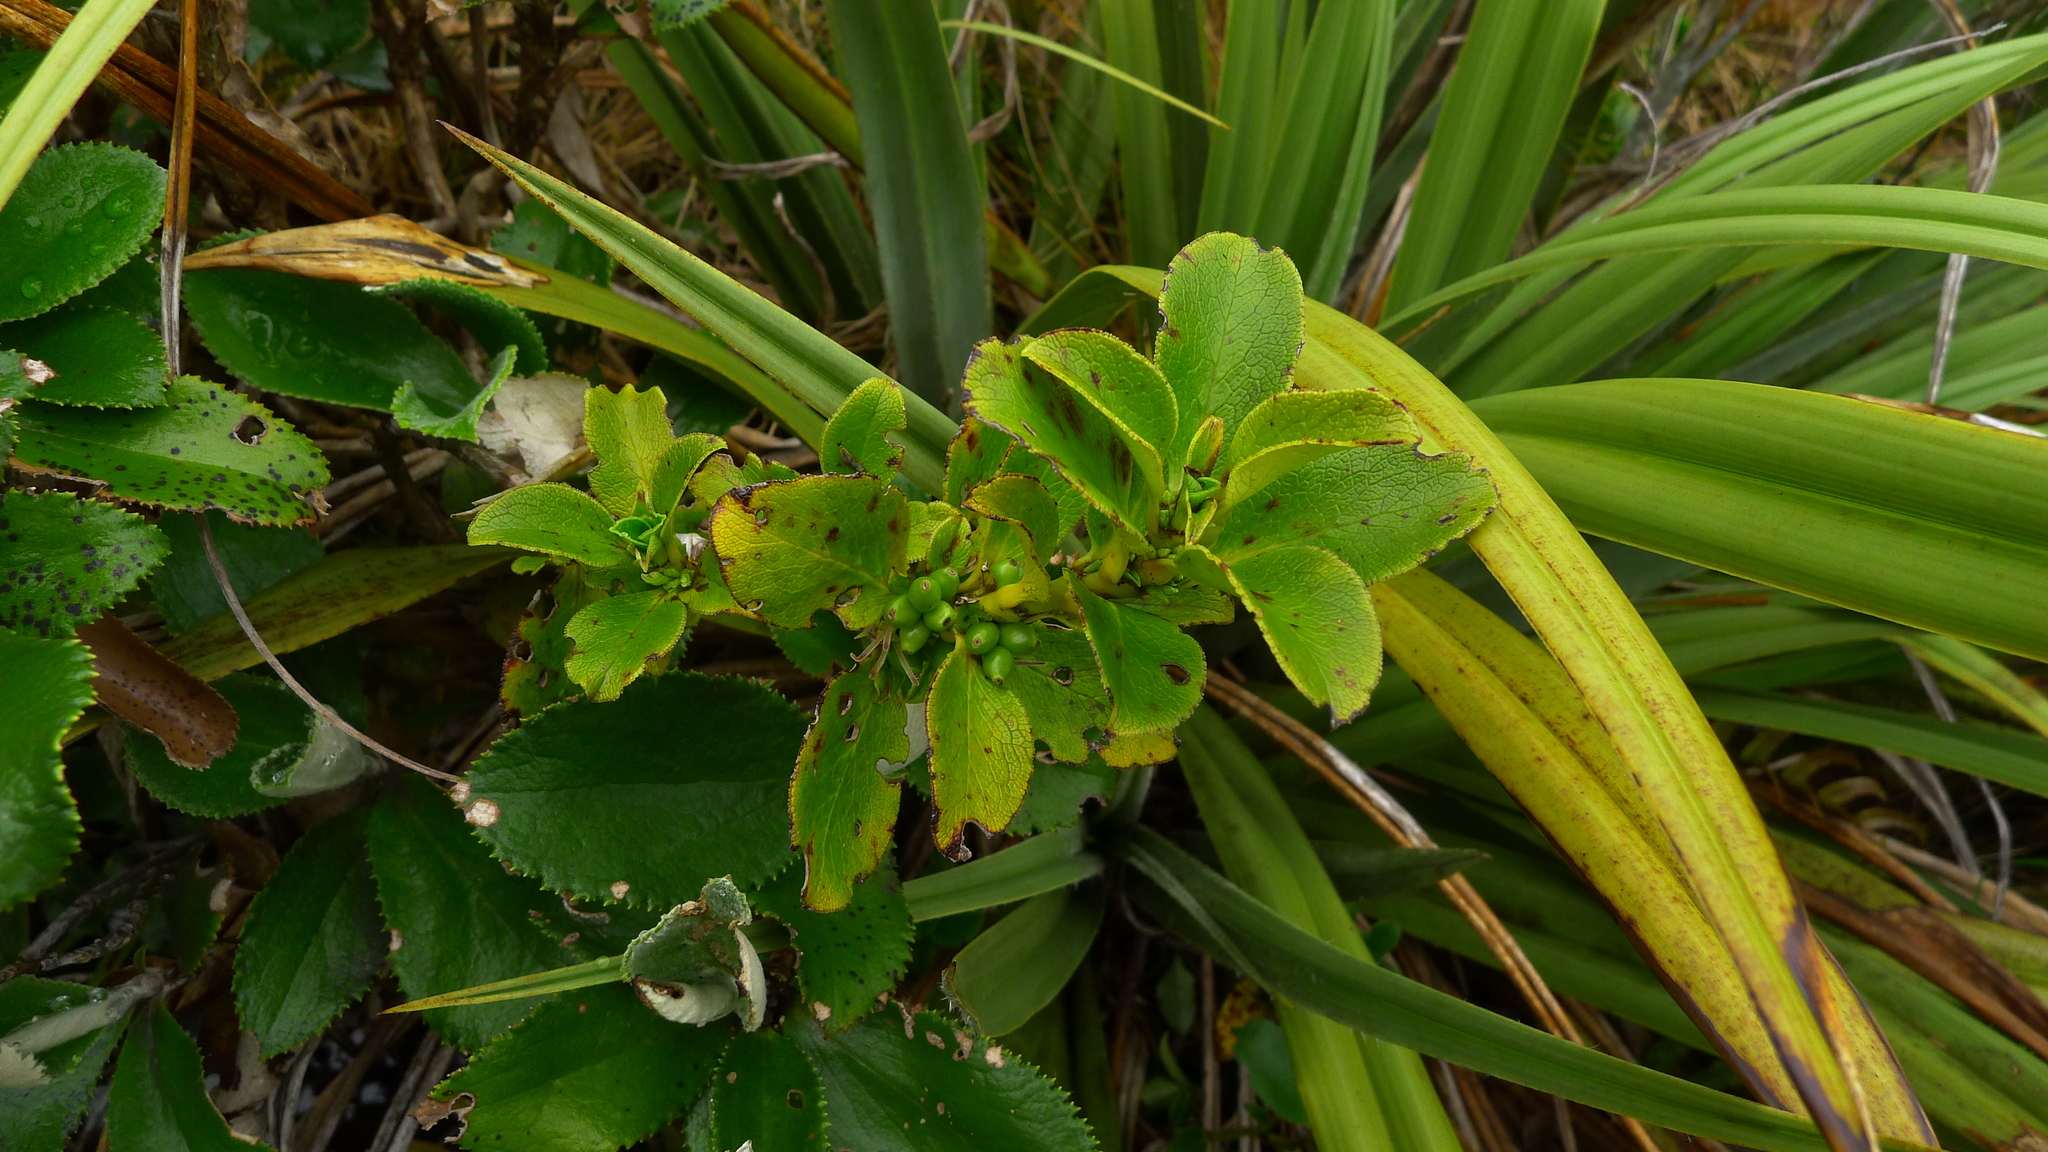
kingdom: Plantae
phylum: Tracheophyta
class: Magnoliopsida
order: Gentianales
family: Rubiaceae
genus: Coprosma
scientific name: Coprosma serrulata
